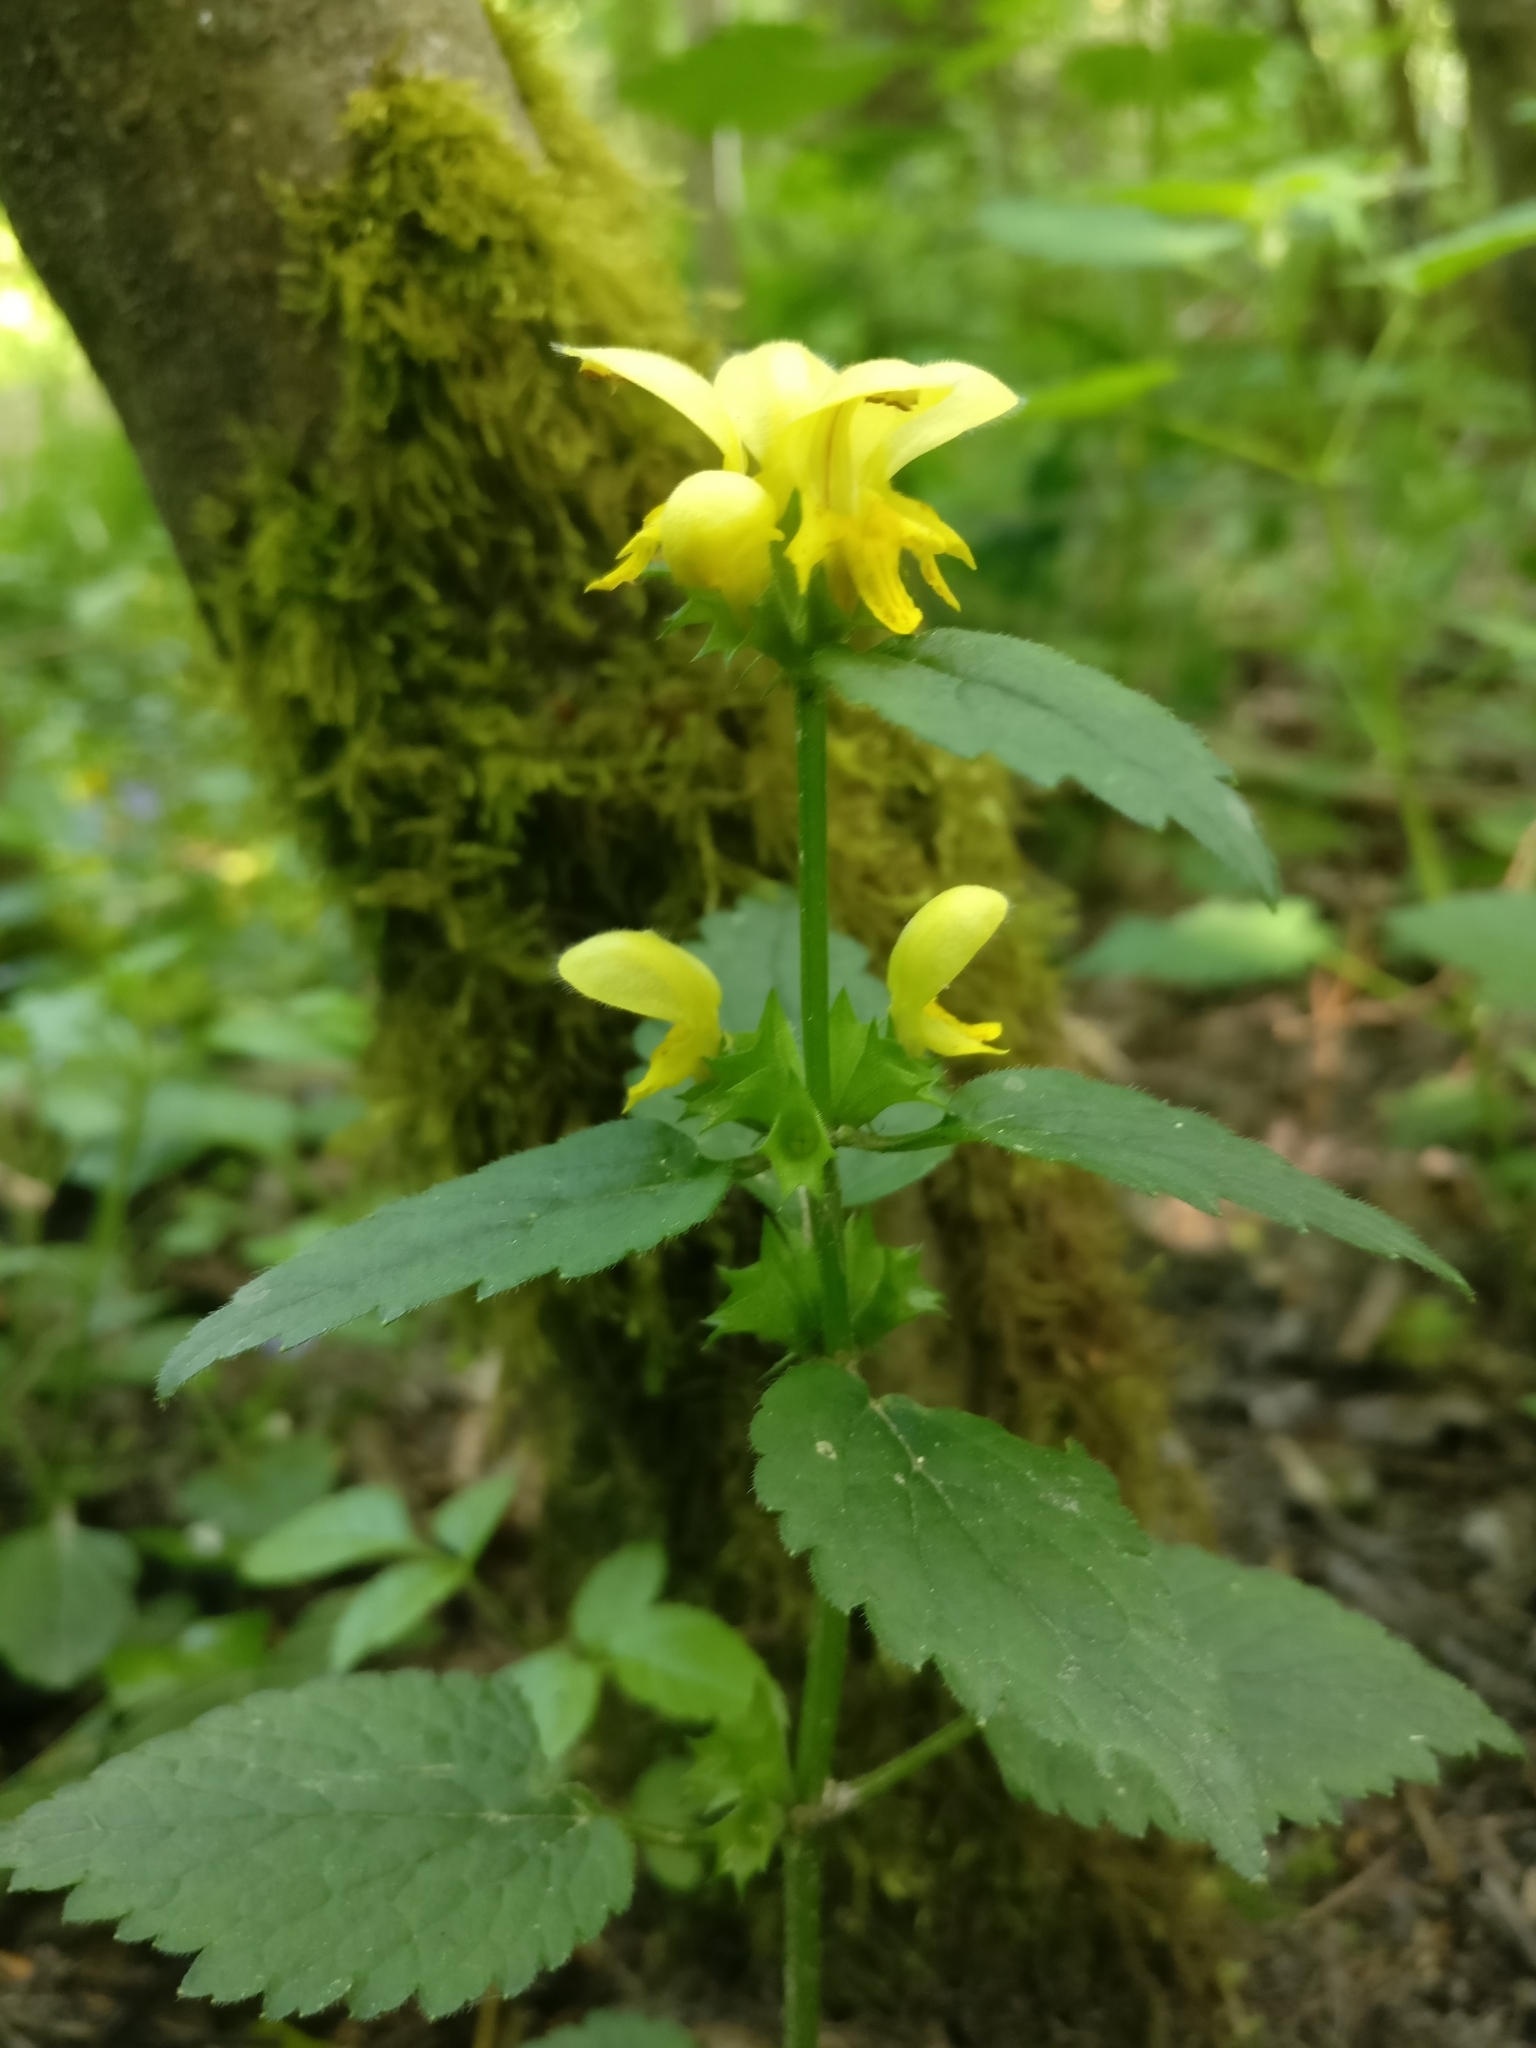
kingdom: Plantae
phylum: Tracheophyta
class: Magnoliopsida
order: Lamiales
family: Lamiaceae
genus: Lamium
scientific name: Lamium galeobdolon
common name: Yellow archangel
